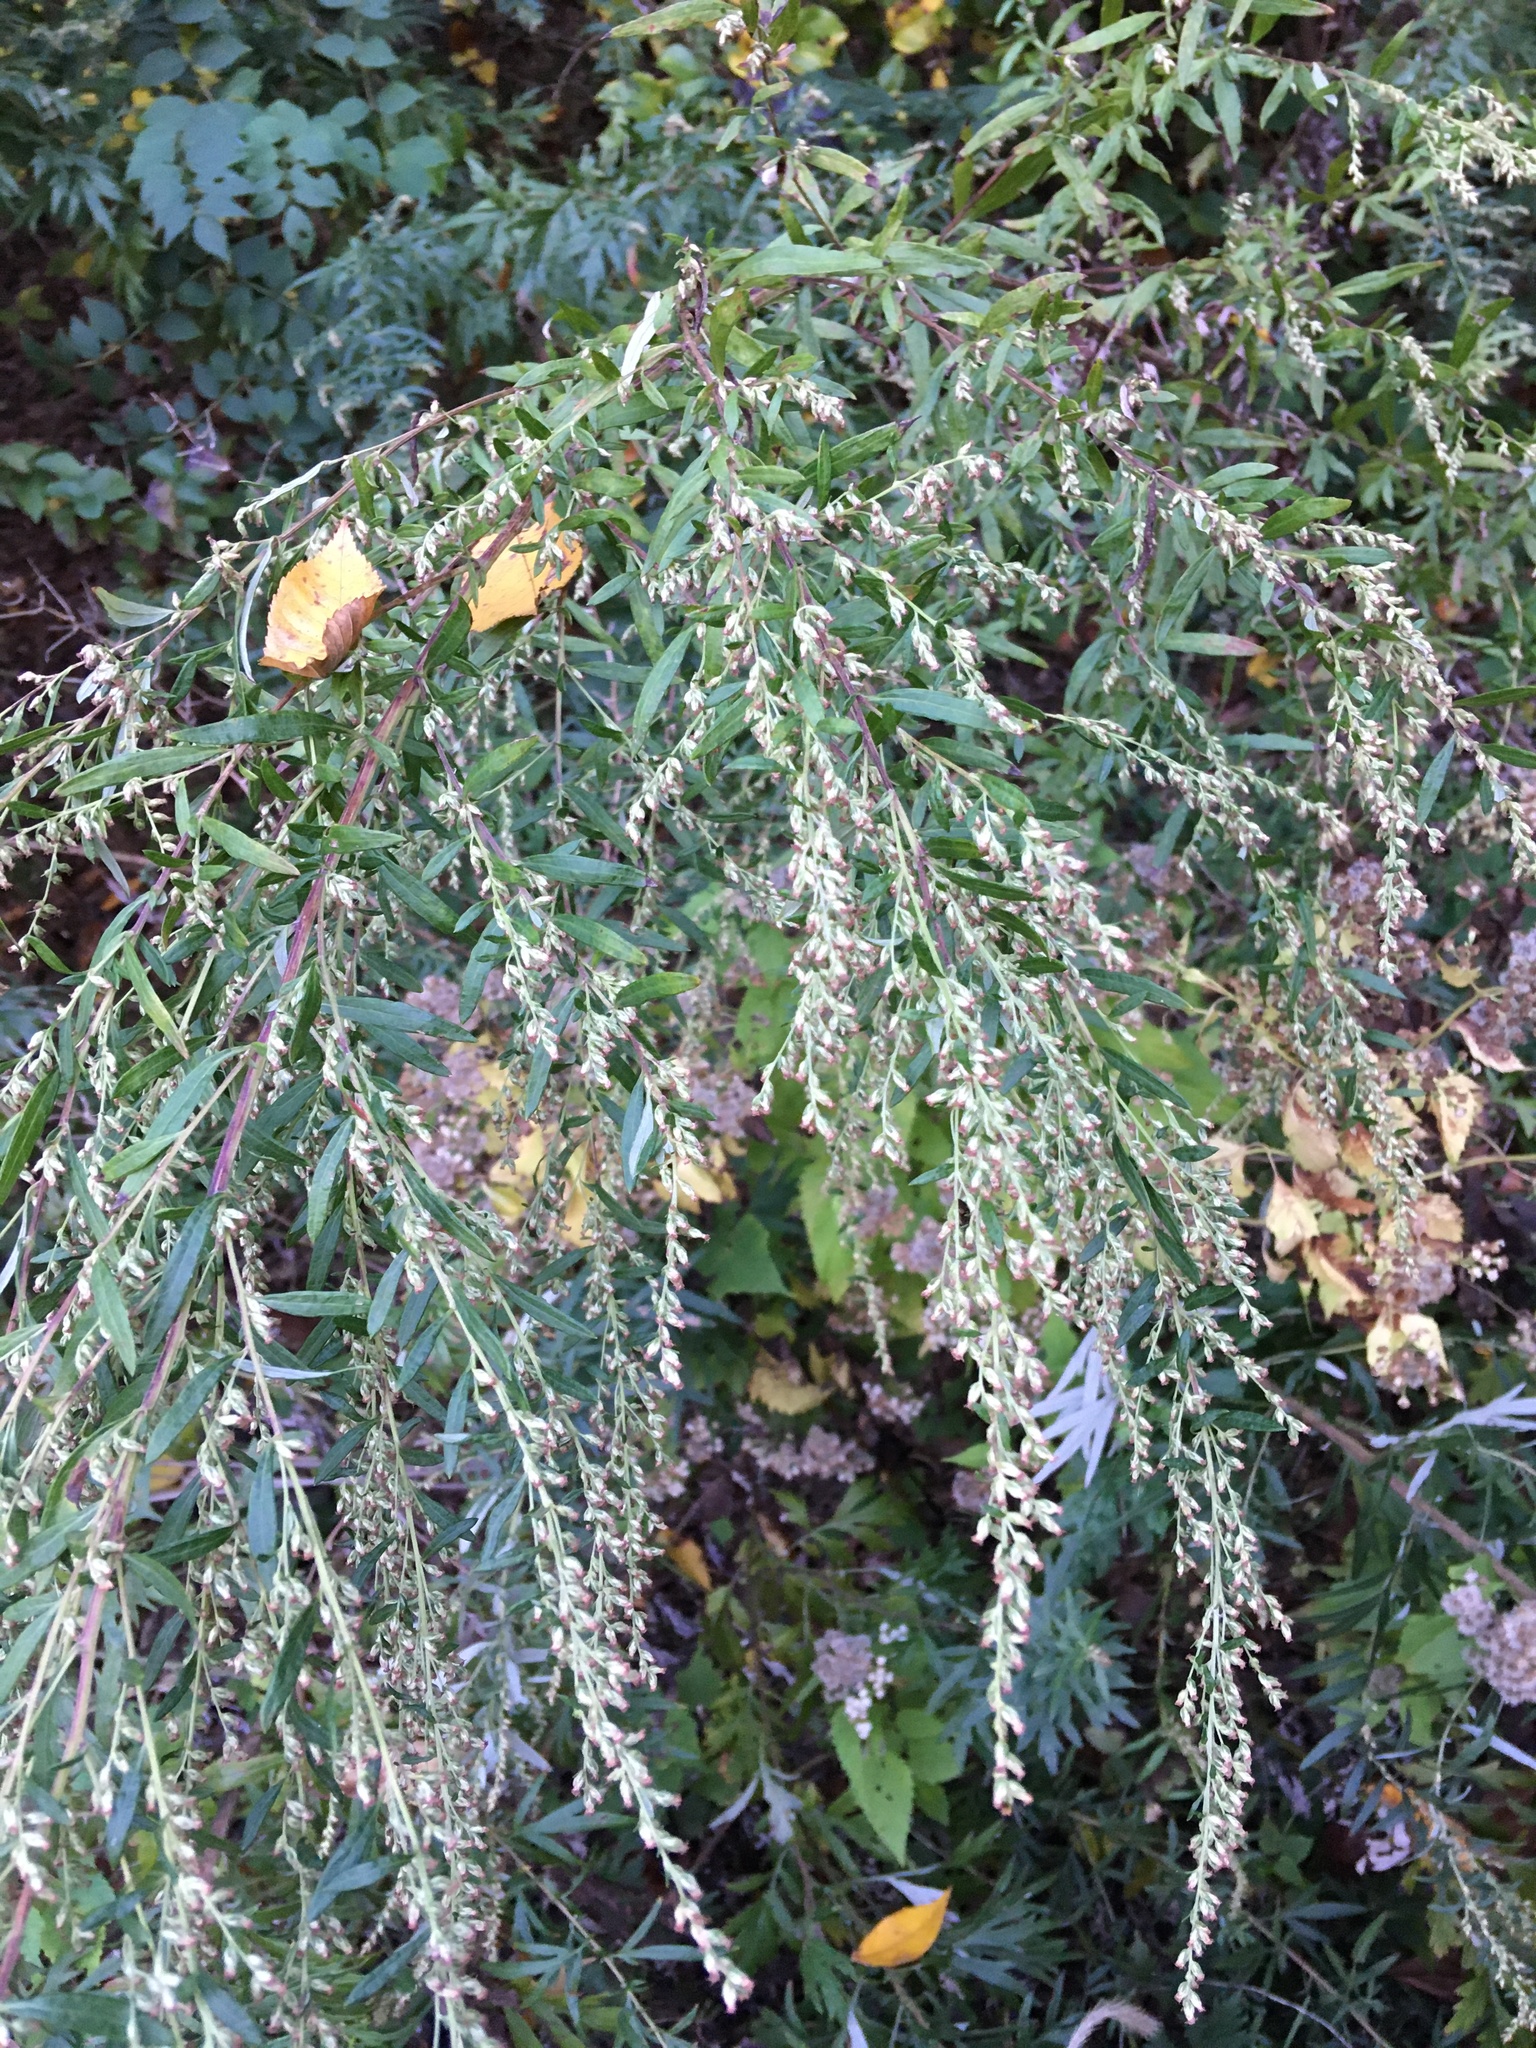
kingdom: Plantae
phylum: Tracheophyta
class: Magnoliopsida
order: Asterales
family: Asteraceae
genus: Artemisia
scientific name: Artemisia vulgaris
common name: Mugwort
